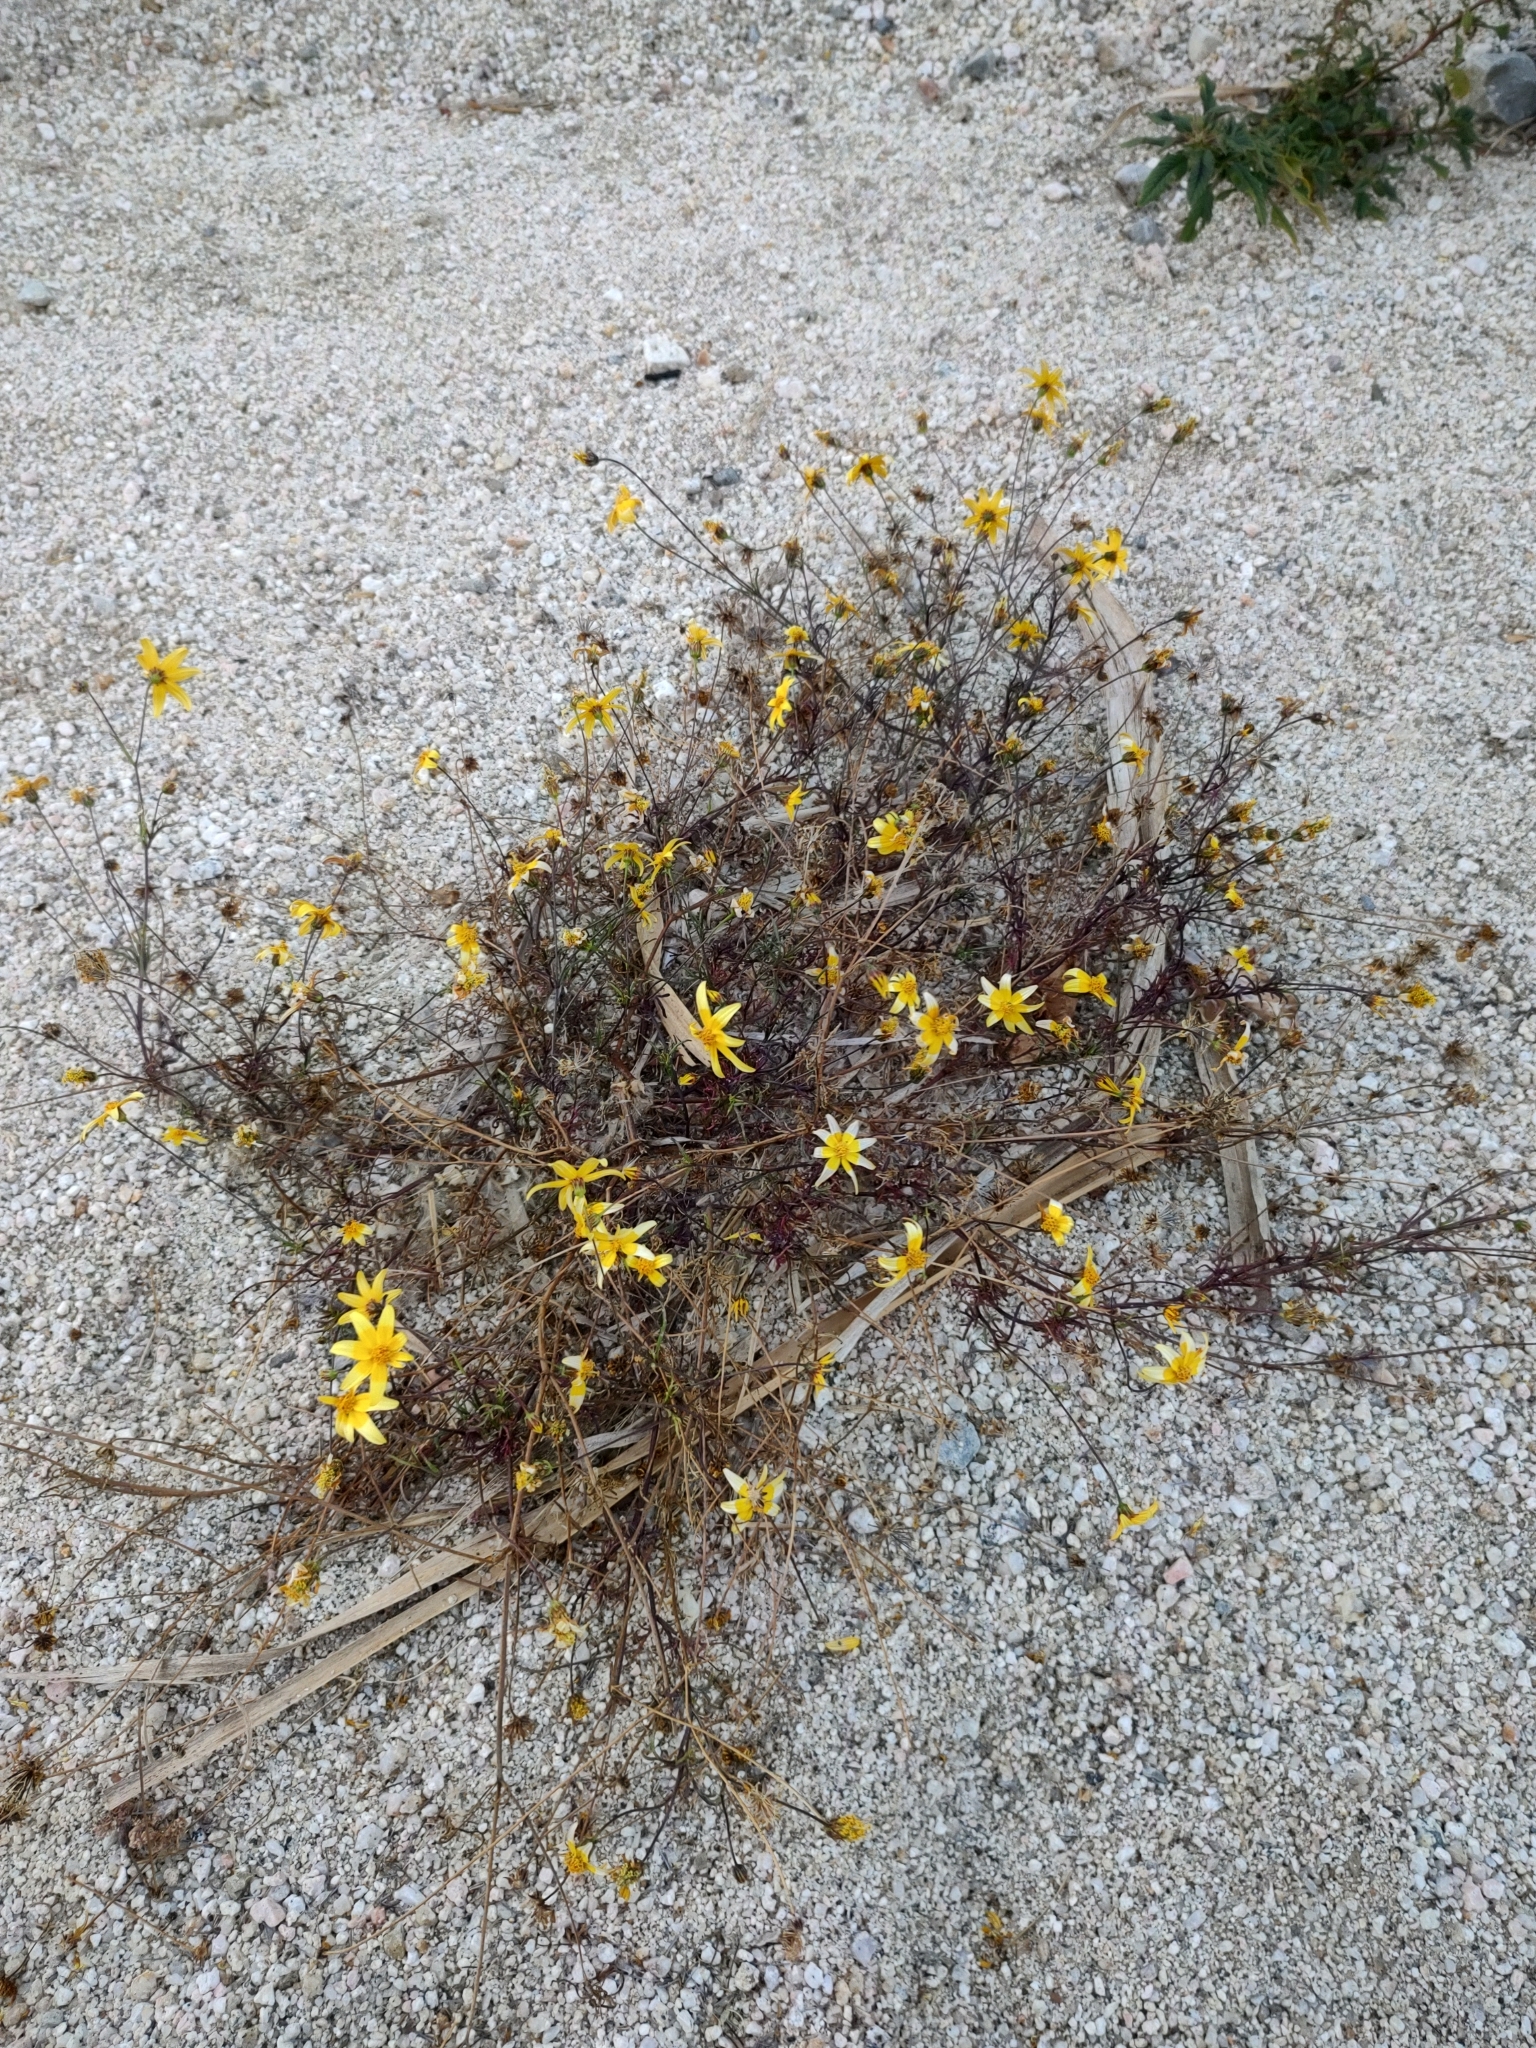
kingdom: Plantae
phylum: Tracheophyta
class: Magnoliopsida
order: Asterales
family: Asteraceae
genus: Bidens
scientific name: Bidens xanti
